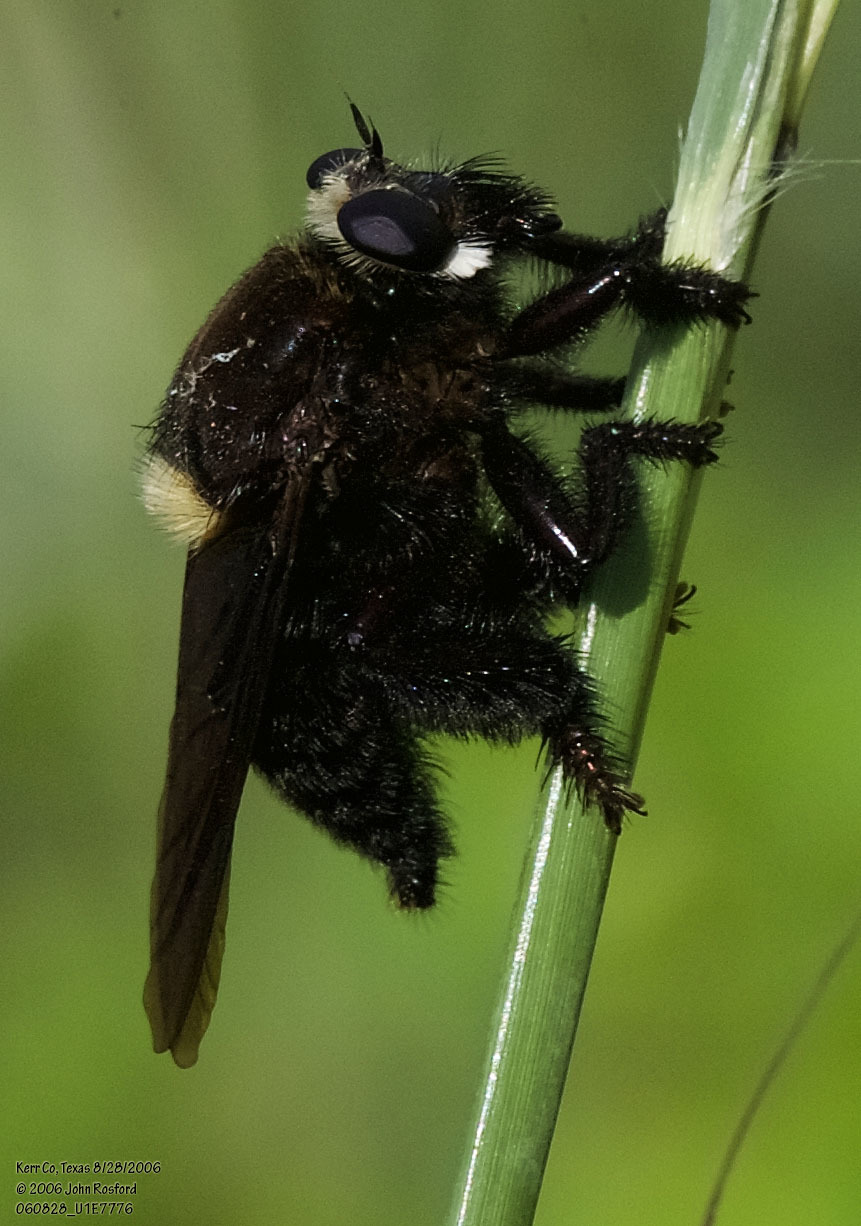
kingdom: Animalia
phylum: Arthropoda
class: Insecta
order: Diptera
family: Asilidae
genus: Mallophora
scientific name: Mallophora leschenaultii
